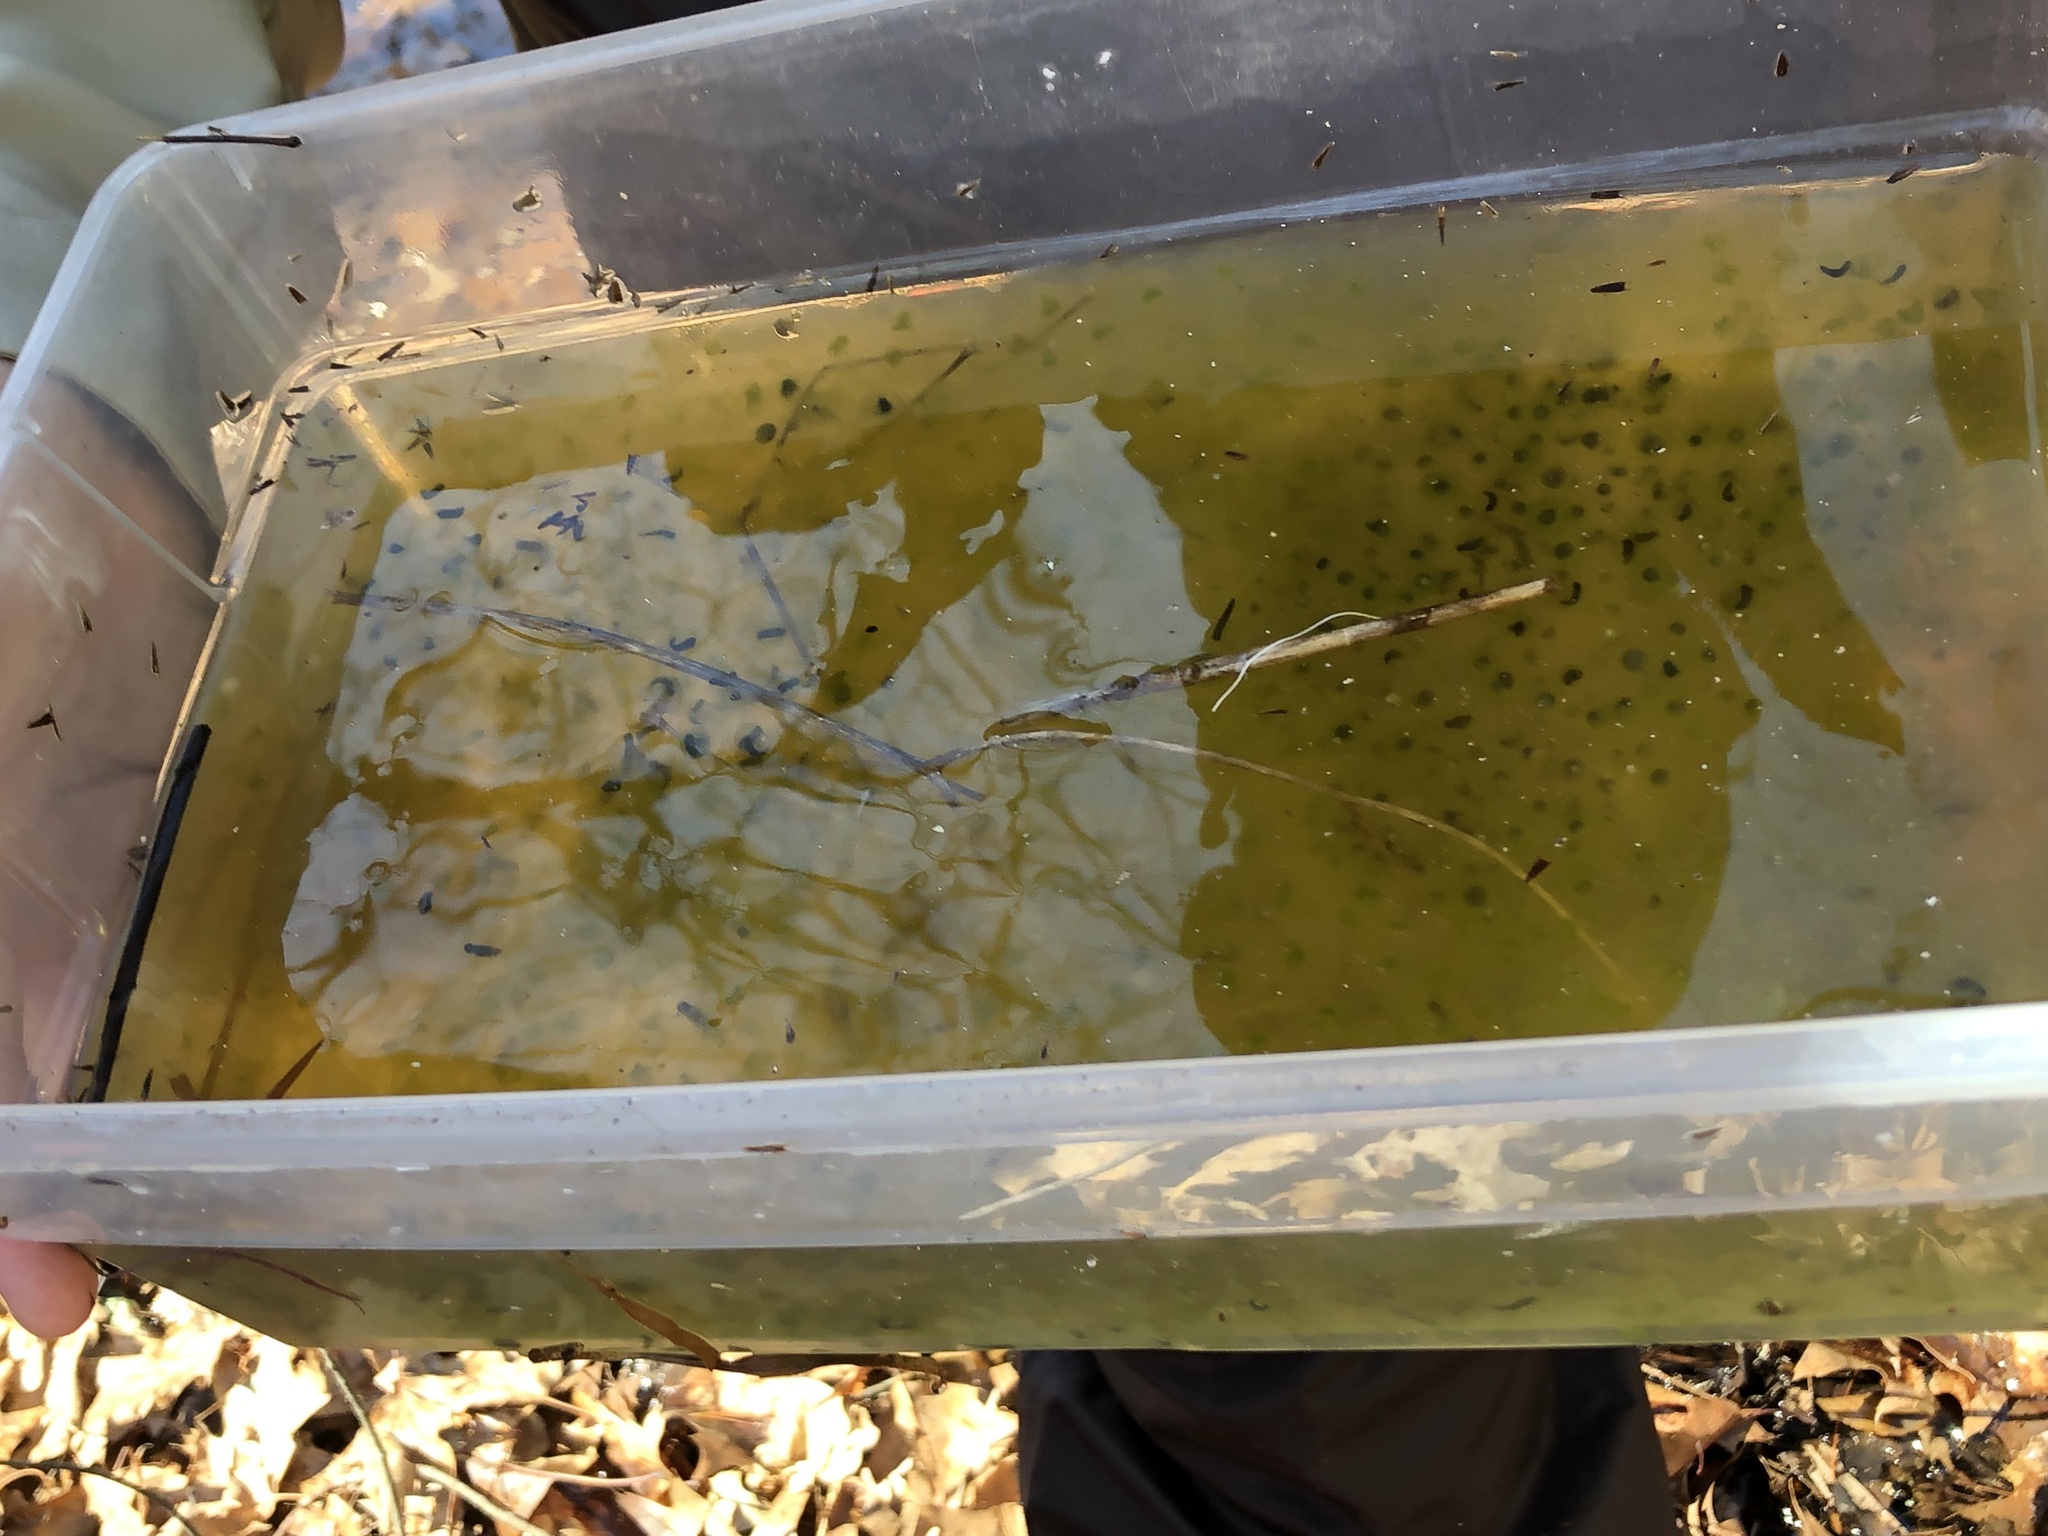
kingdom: Animalia
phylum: Chordata
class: Amphibia
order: Anura
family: Ranidae
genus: Lithobates
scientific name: Lithobates sylvaticus
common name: Wood frog
